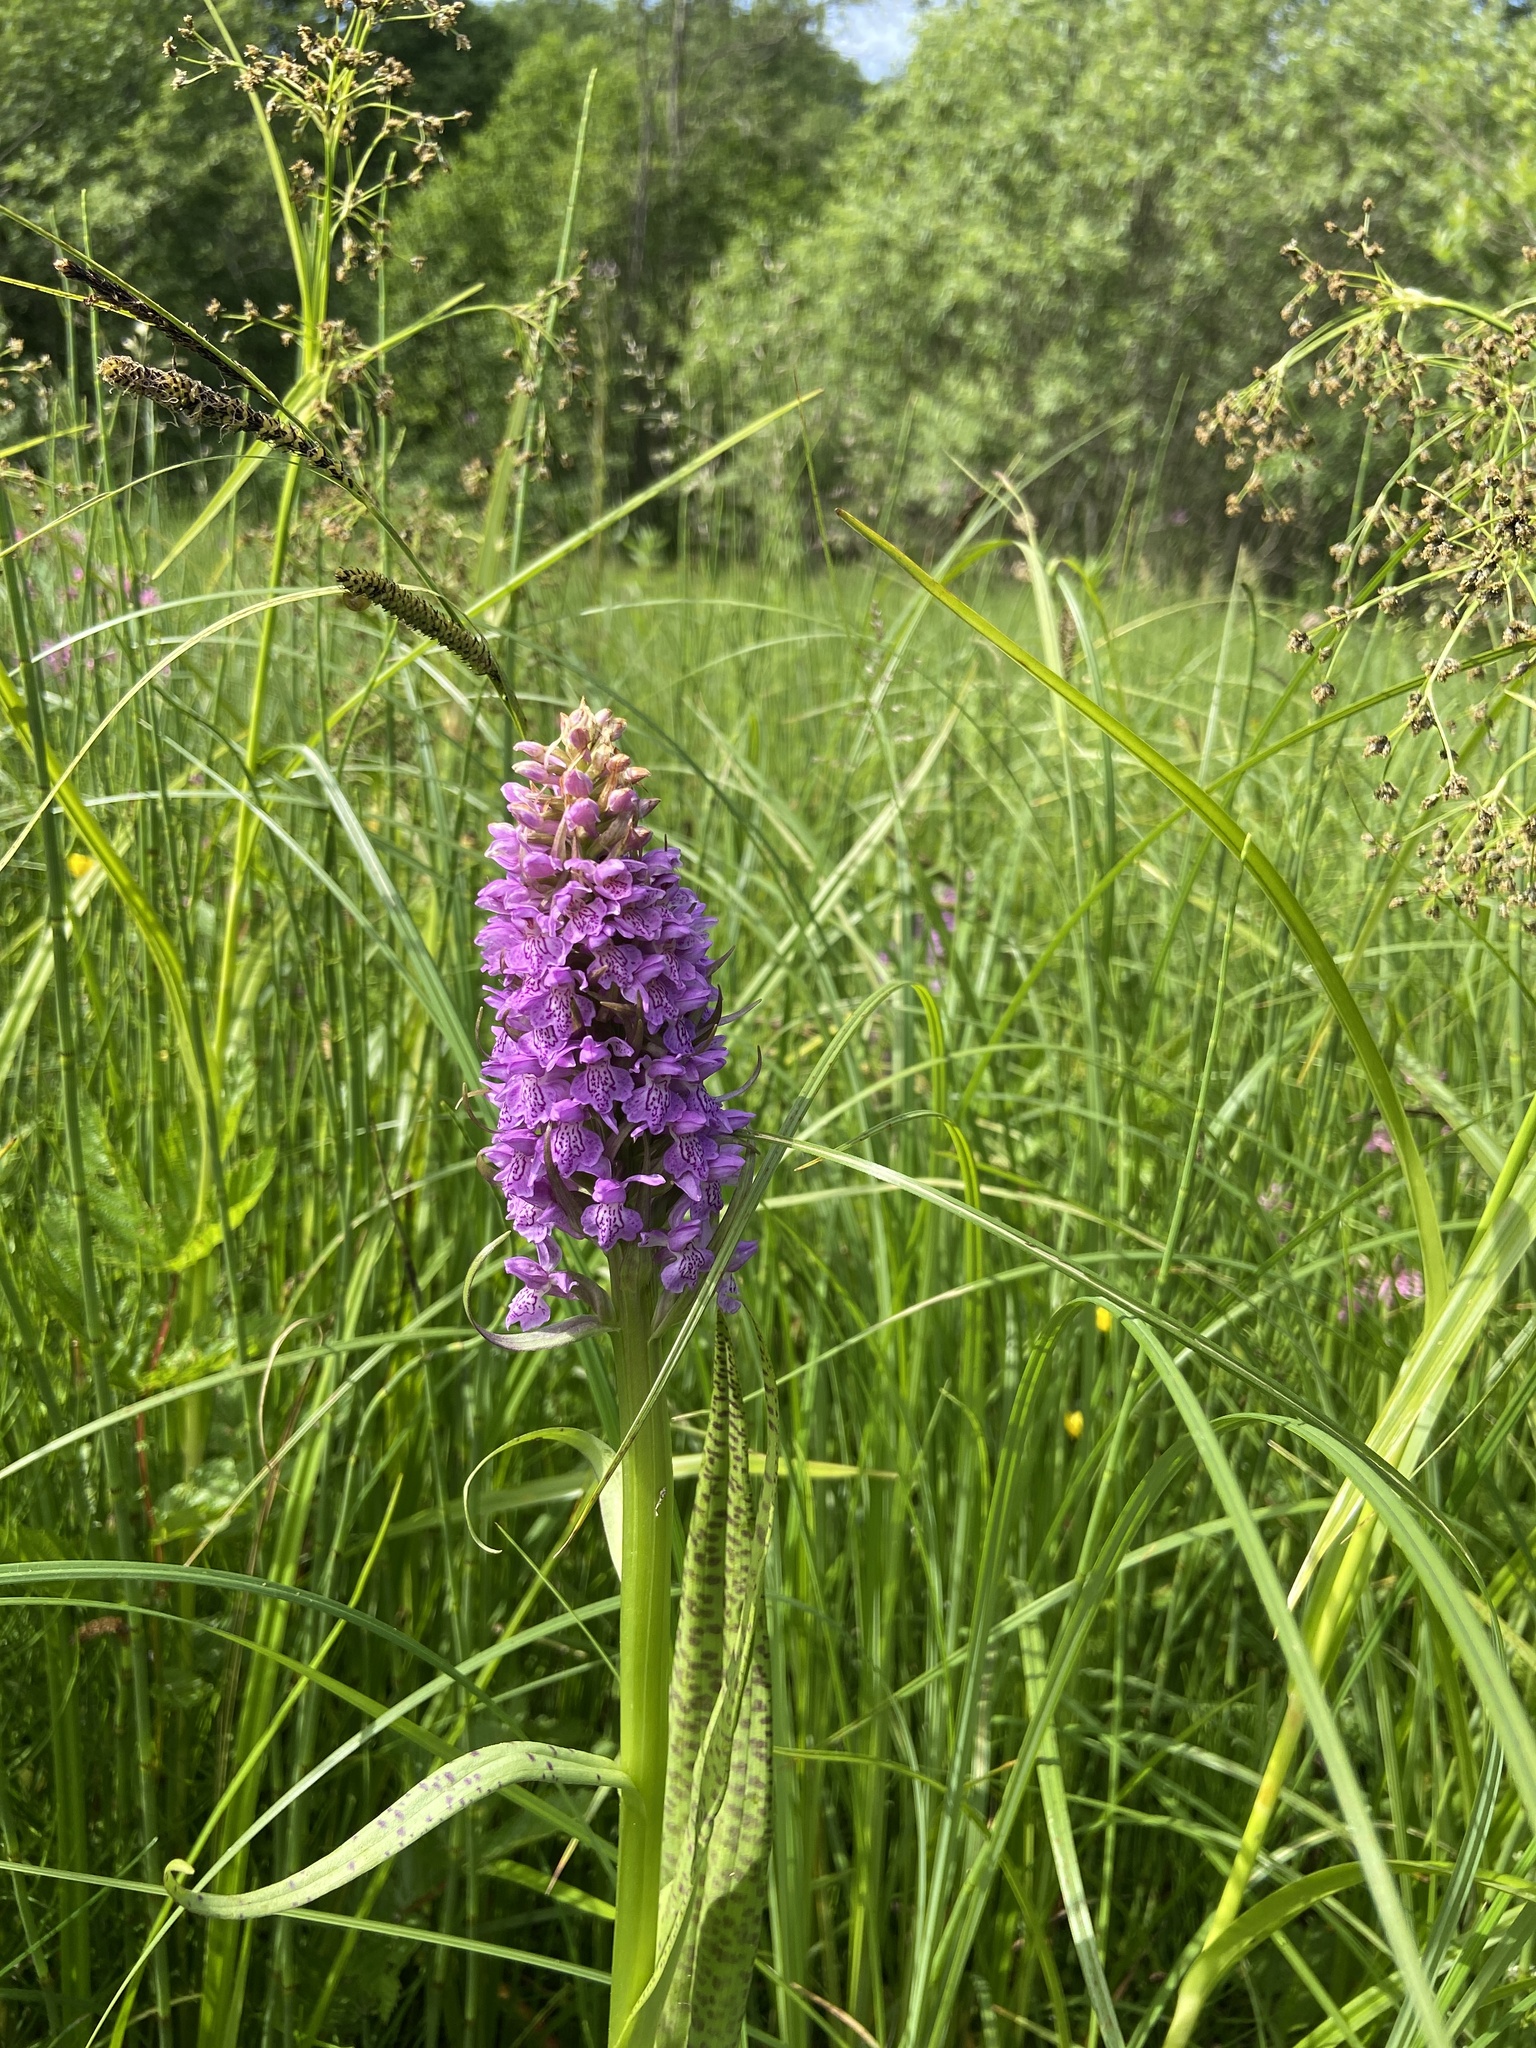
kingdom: Plantae
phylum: Tracheophyta
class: Liliopsida
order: Asparagales
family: Orchidaceae
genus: Dactylorhiza
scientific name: Dactylorhiza majalis
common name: Marsh orchid
